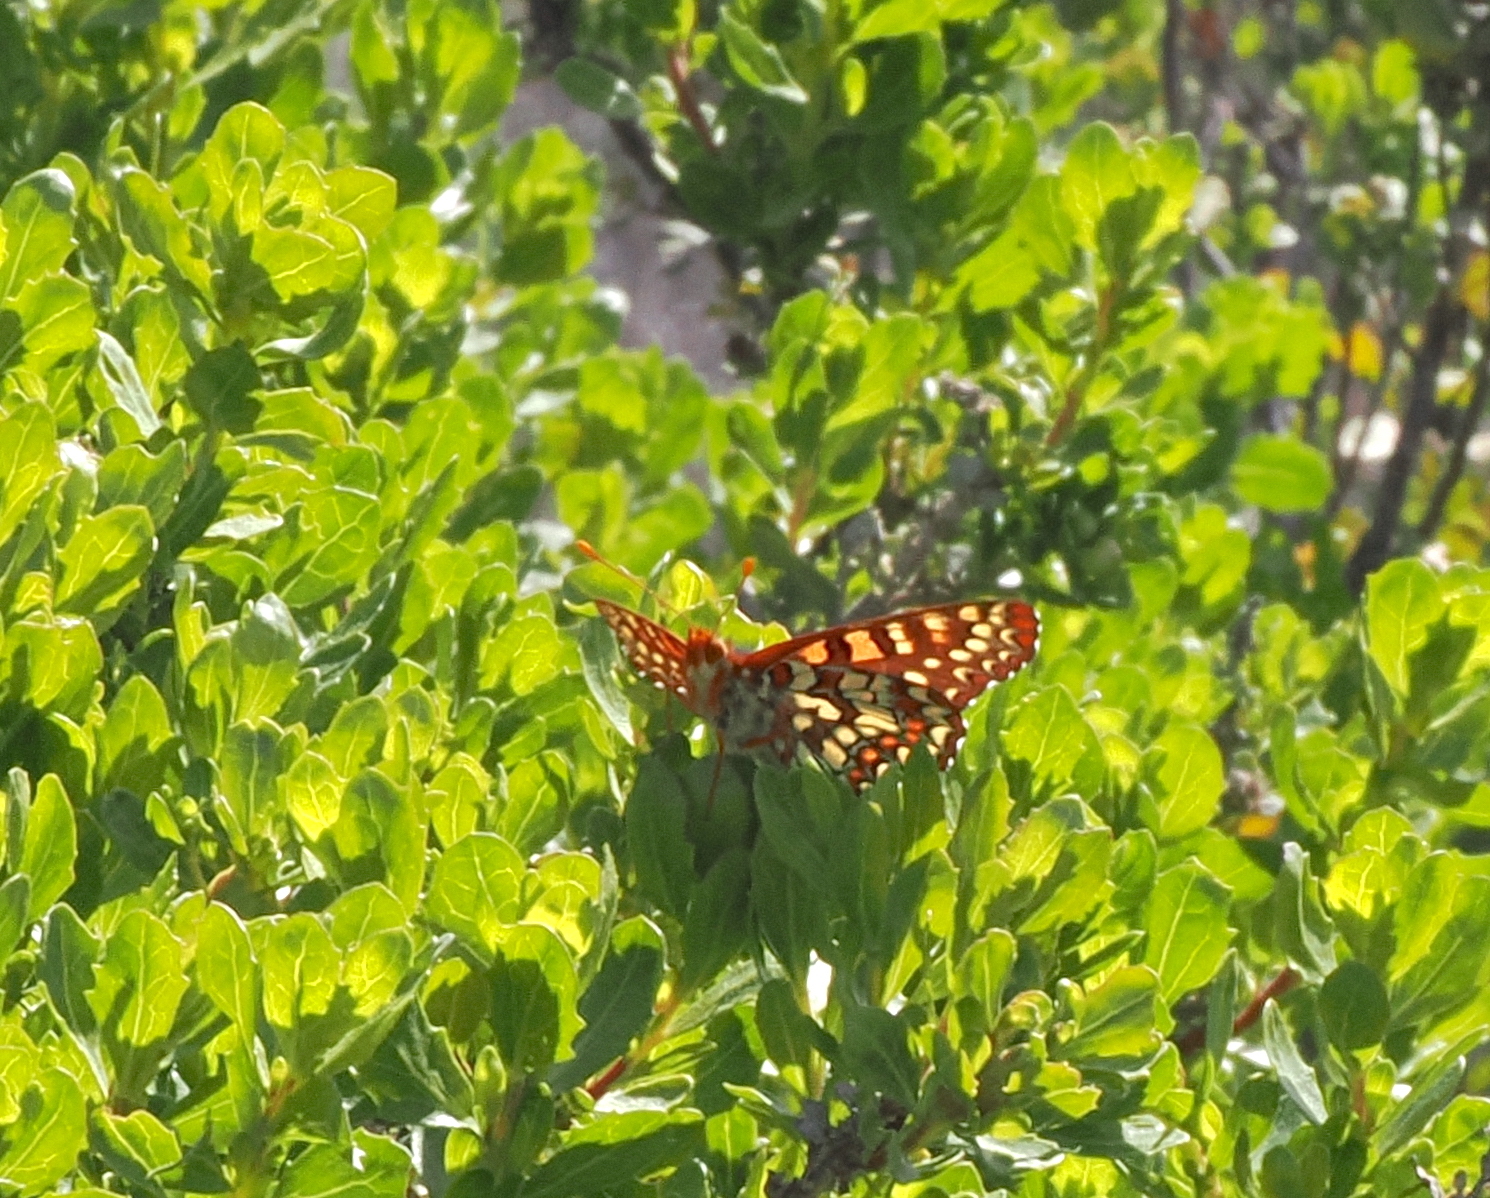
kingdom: Animalia
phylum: Arthropoda
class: Insecta
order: Lepidoptera
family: Nymphalidae
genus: Occidryas
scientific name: Occidryas chalcedona
